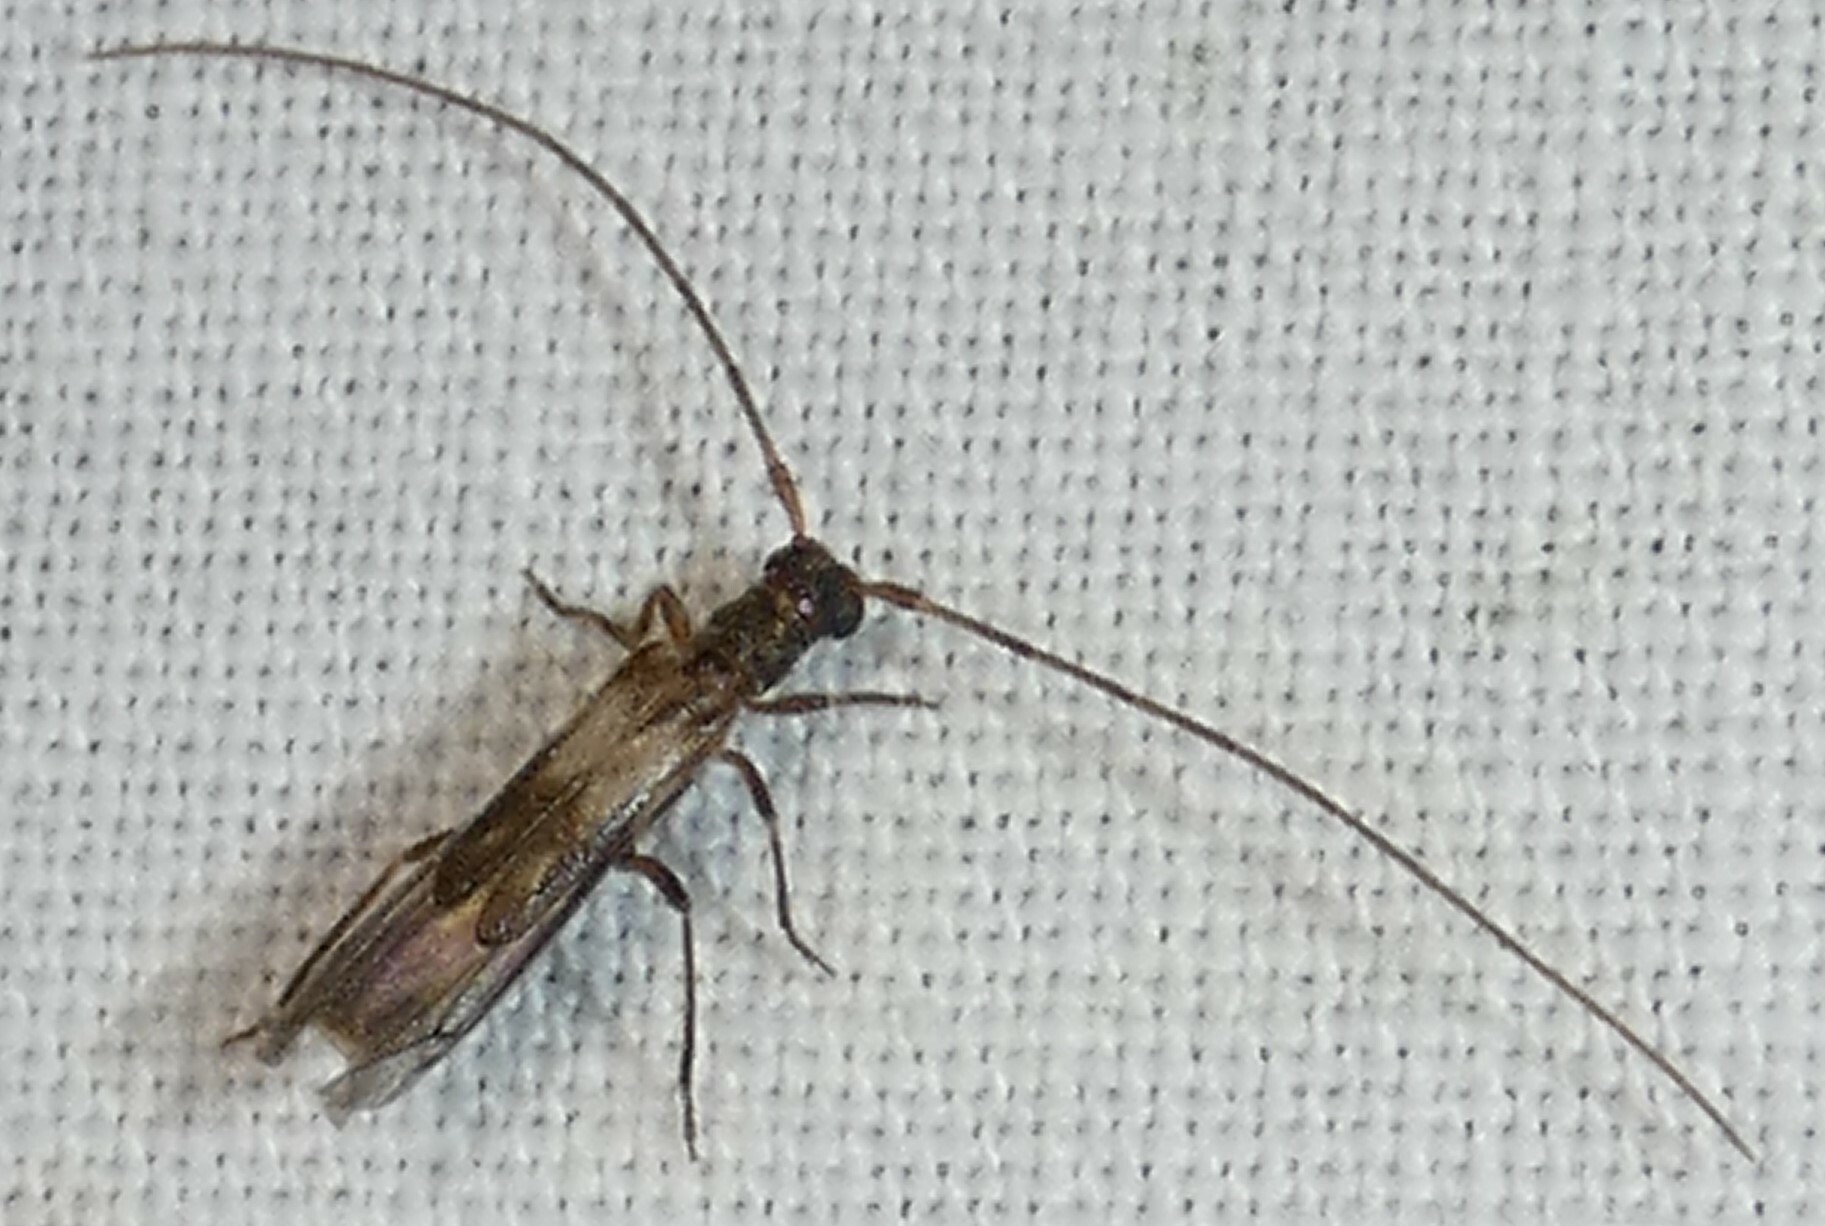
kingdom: Animalia
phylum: Arthropoda
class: Insecta
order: Coleoptera
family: Cerambycidae
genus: Methia
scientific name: Methia necydalea
